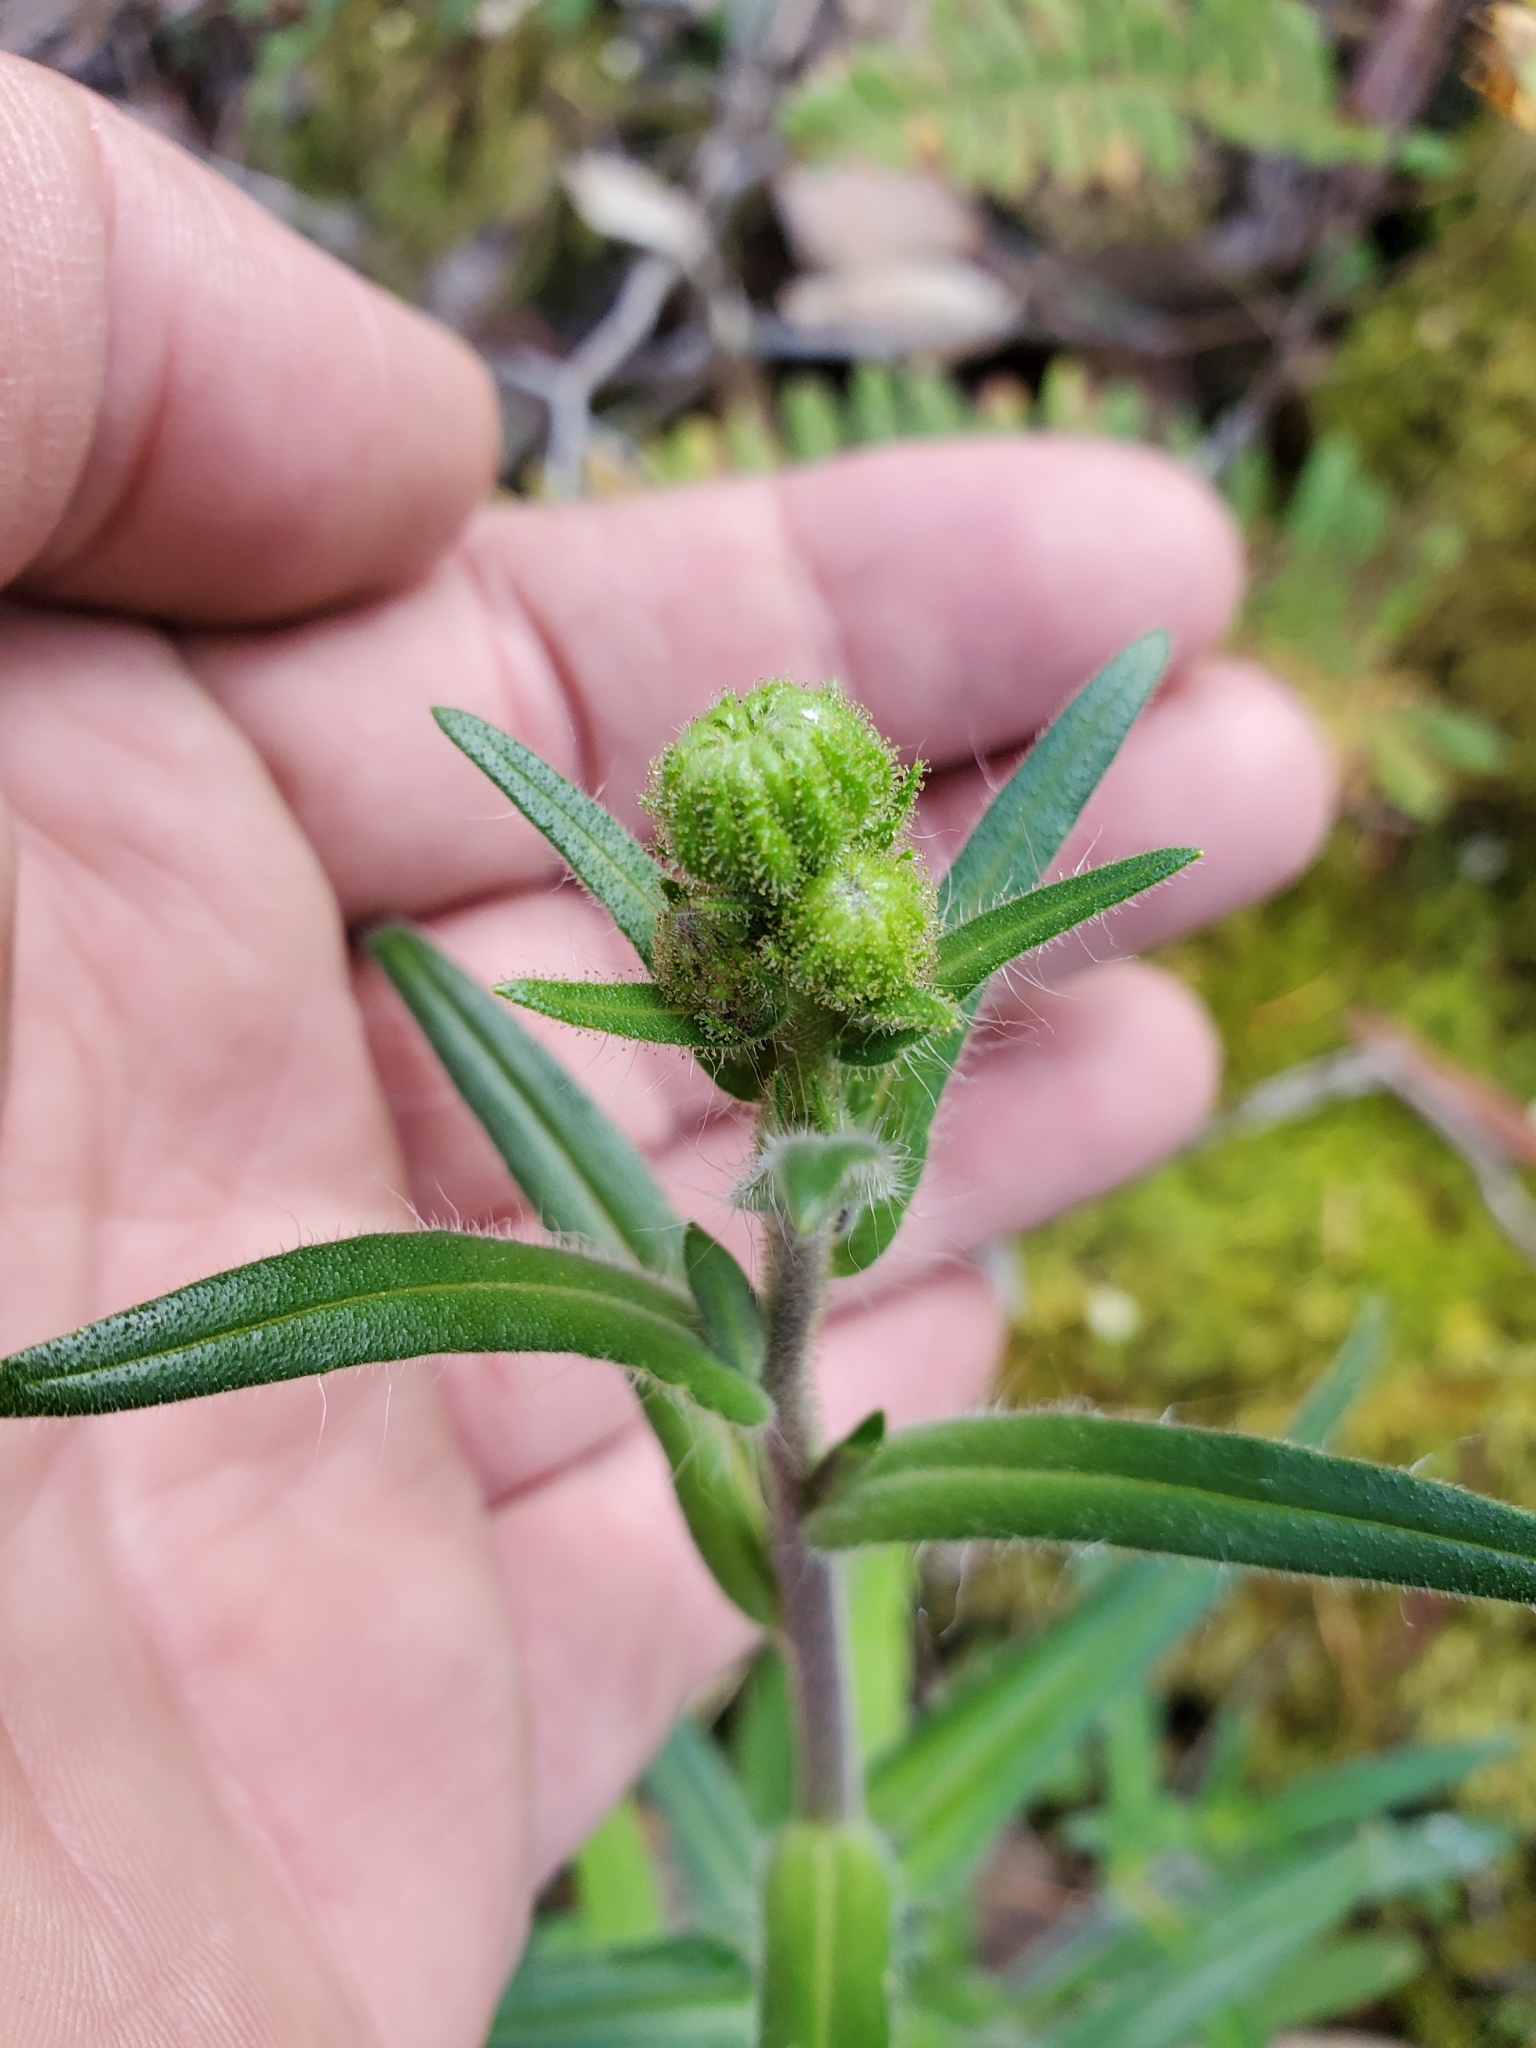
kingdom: Plantae
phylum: Tracheophyta
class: Magnoliopsida
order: Asterales
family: Asteraceae
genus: Anisocarpus
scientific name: Anisocarpus madioides
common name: Woodland madia
